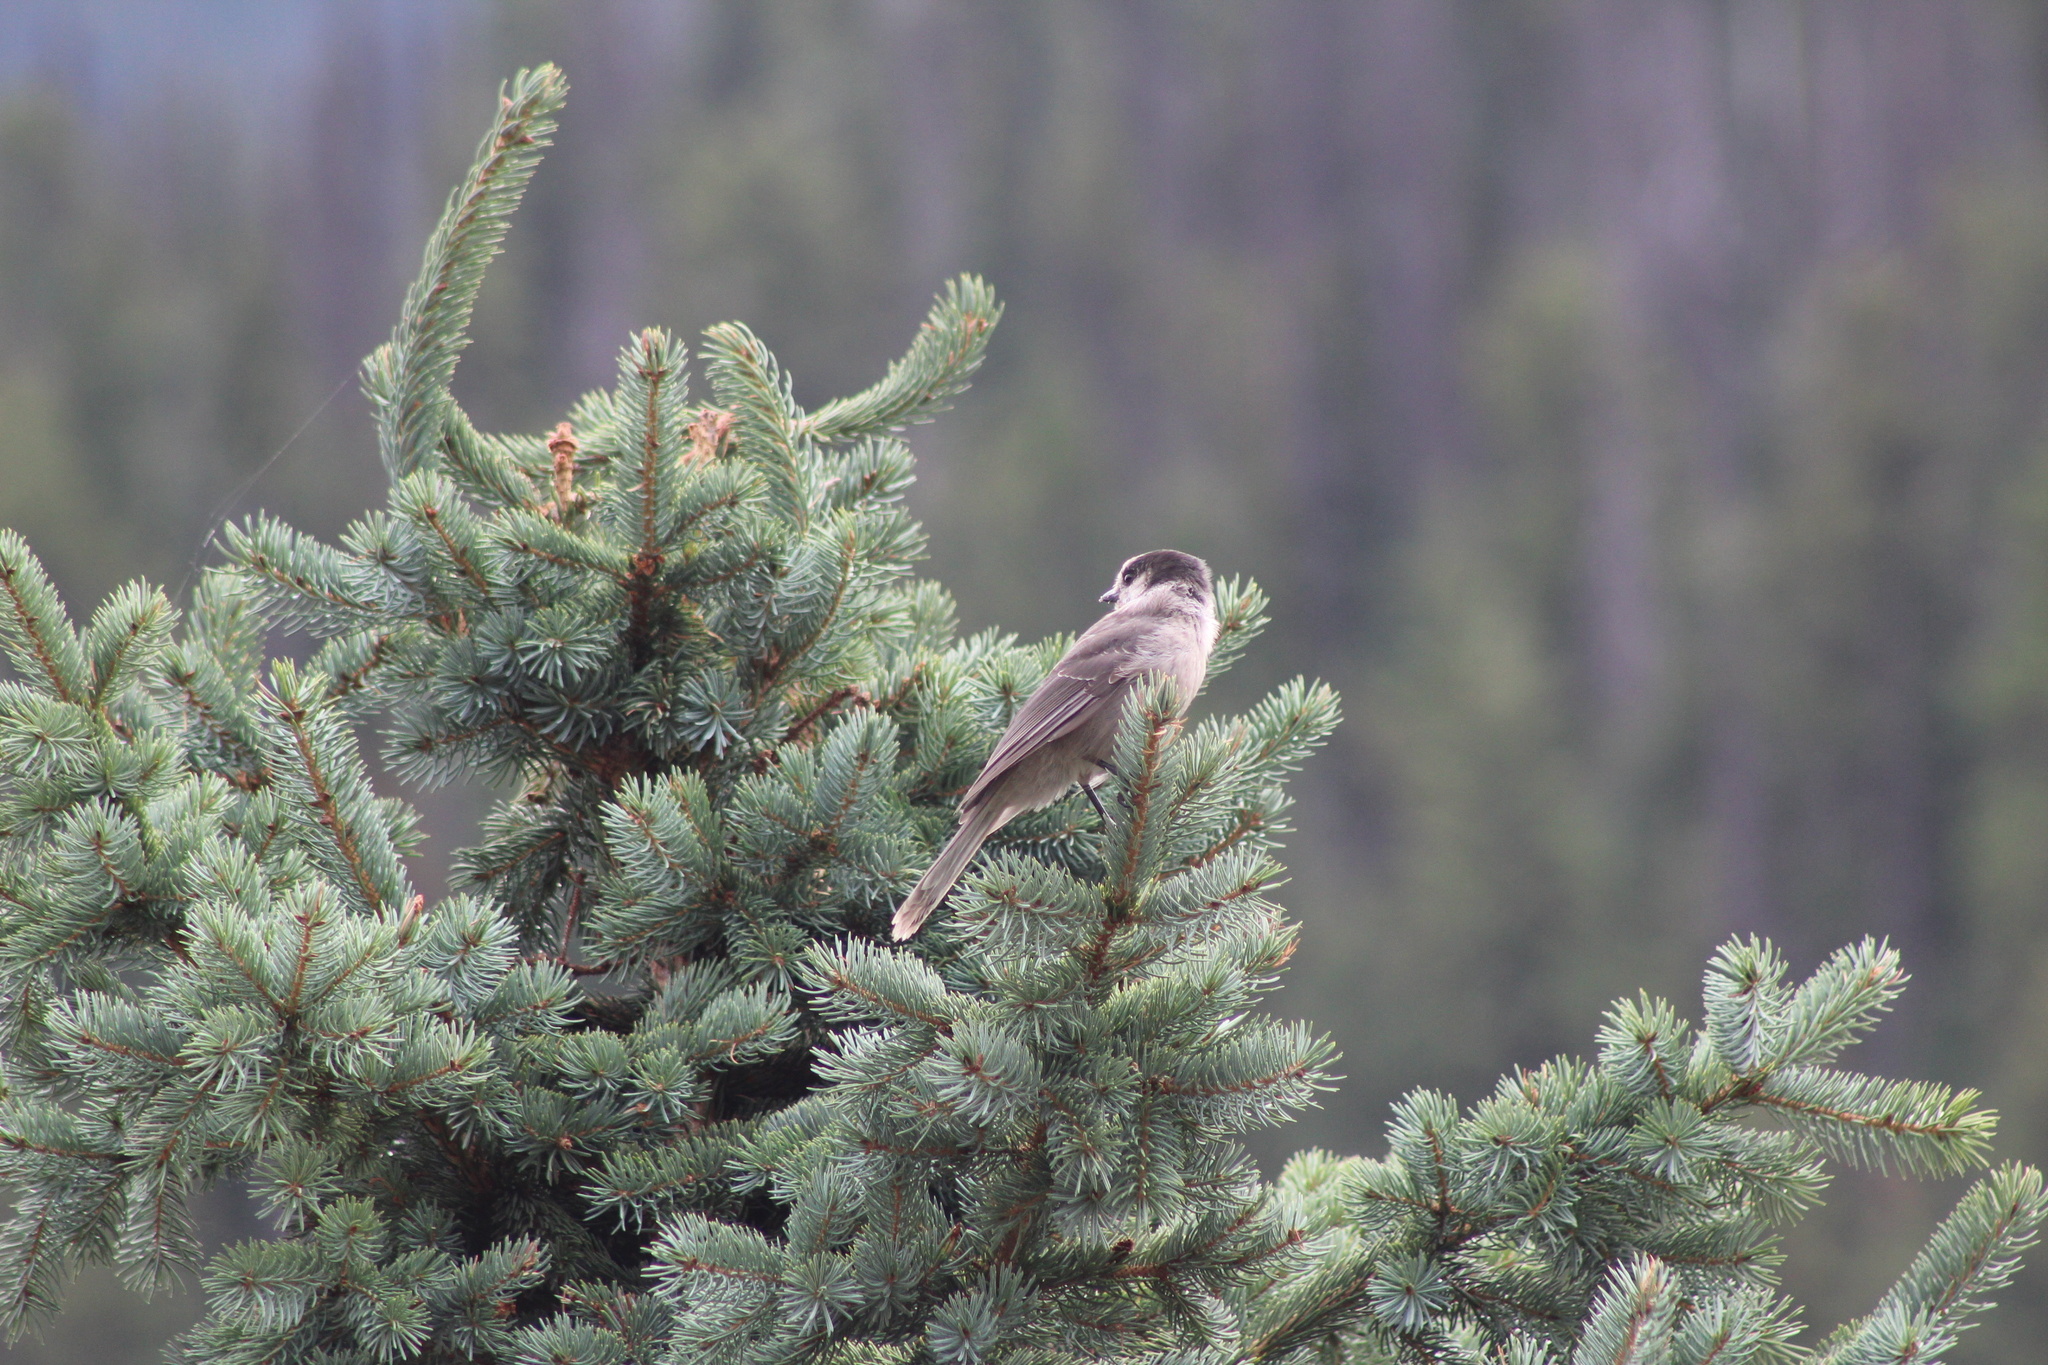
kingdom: Animalia
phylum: Chordata
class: Aves
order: Passeriformes
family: Corvidae
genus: Perisoreus
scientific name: Perisoreus canadensis
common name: Gray jay
